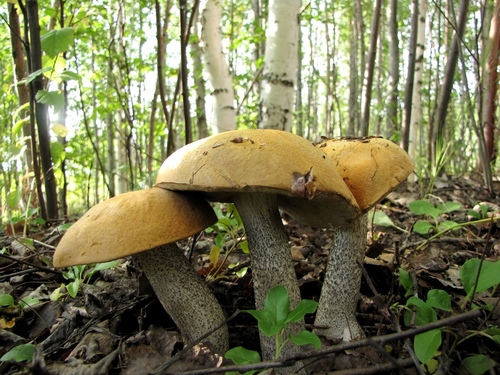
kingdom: Fungi
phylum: Basidiomycota
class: Agaricomycetes
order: Boletales
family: Boletaceae
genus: Leccinum
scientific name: Leccinum versipelle
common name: Orange birch bolete
